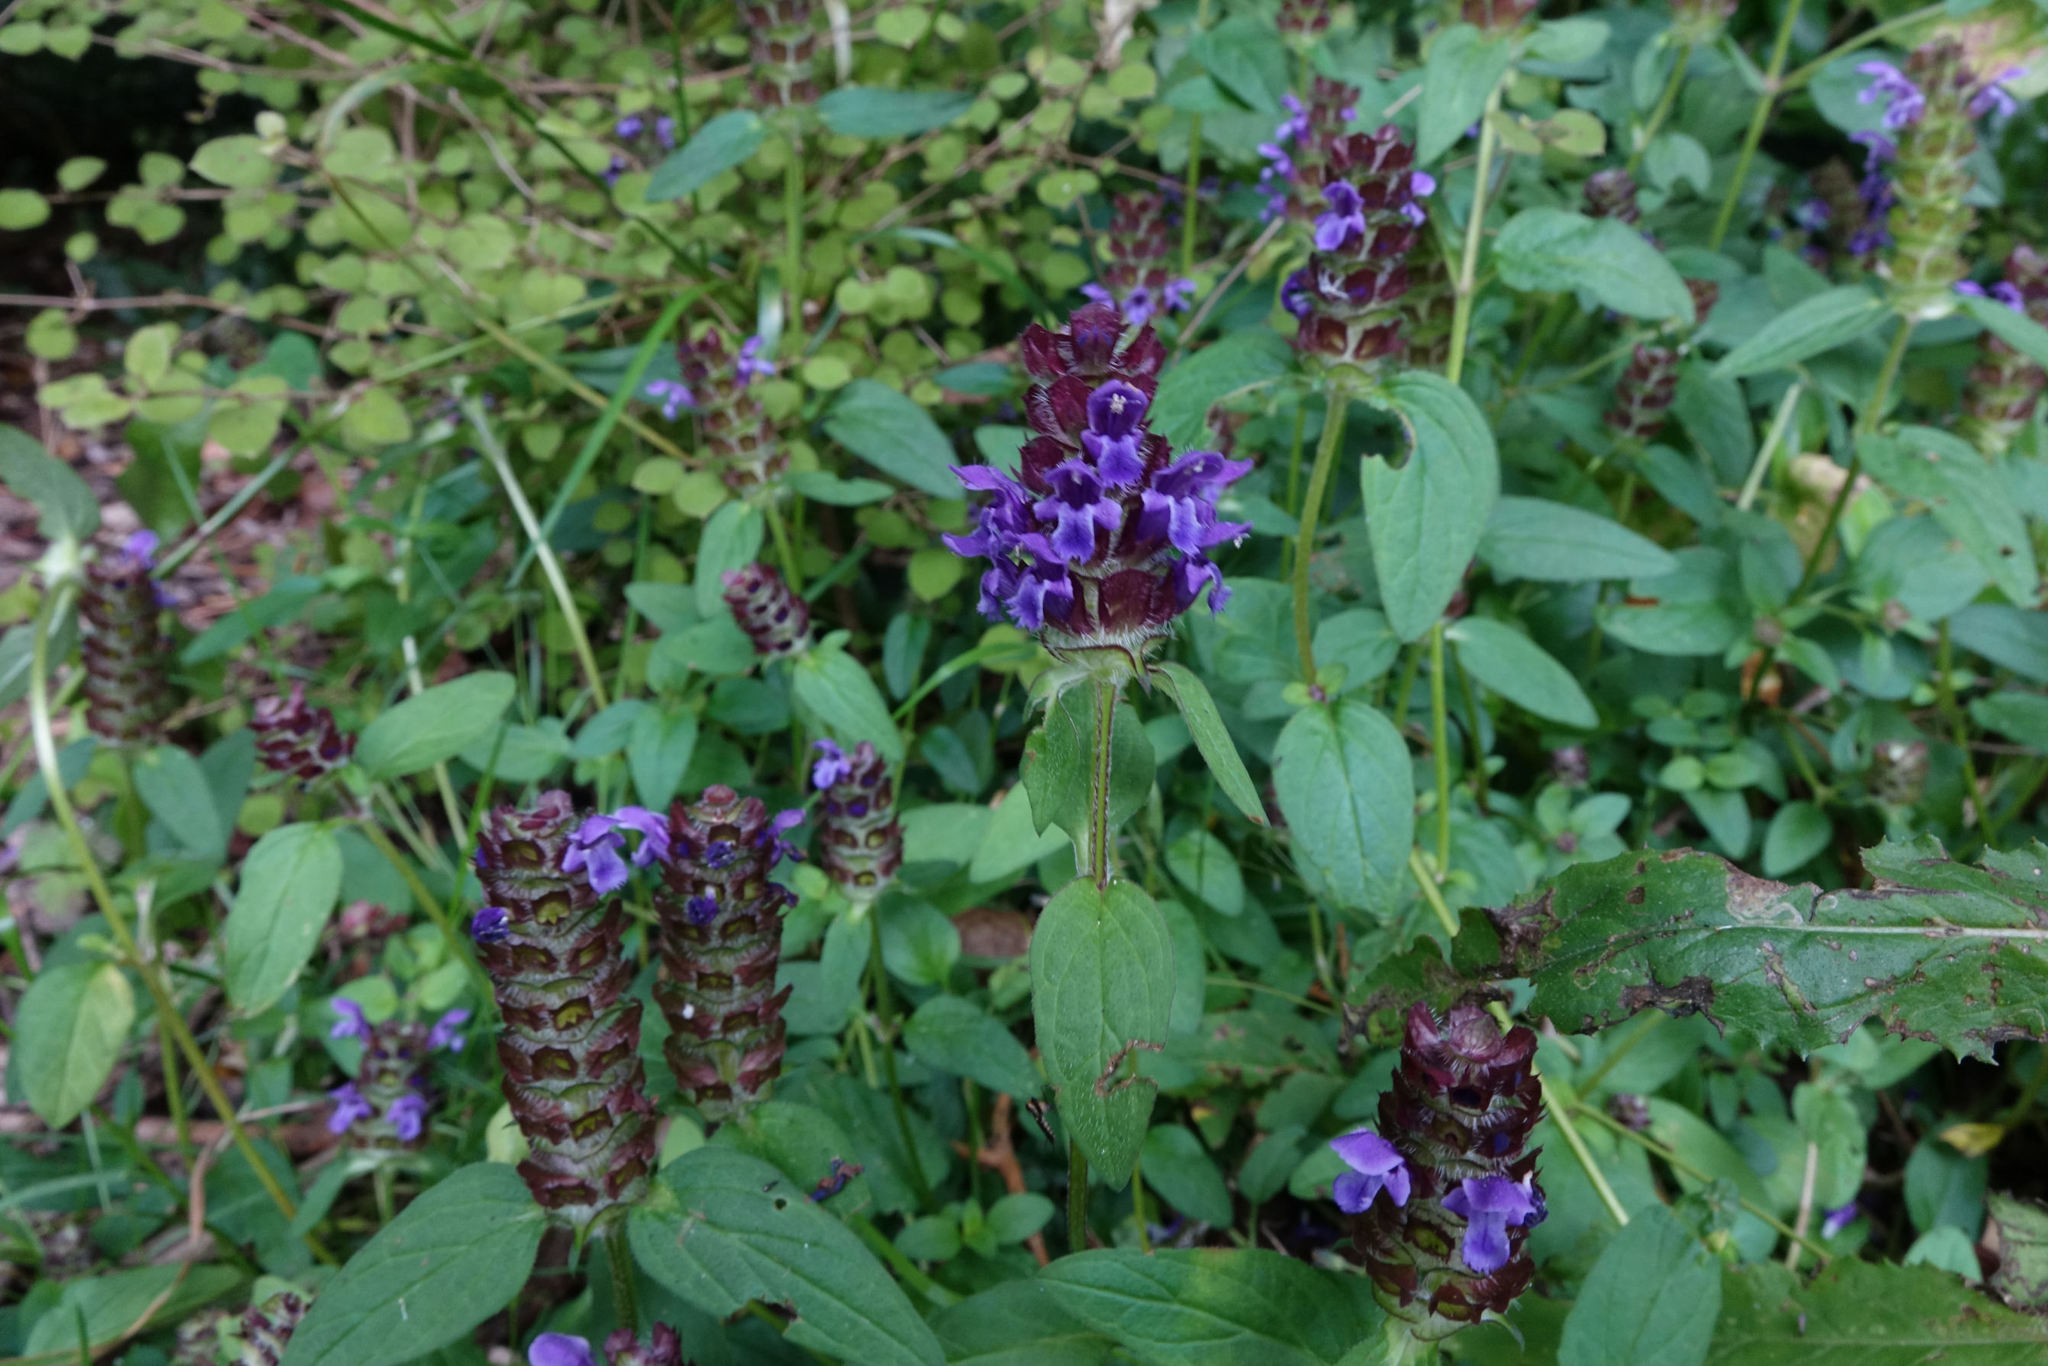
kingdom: Plantae
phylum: Tracheophyta
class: Magnoliopsida
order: Lamiales
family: Lamiaceae
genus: Prunella
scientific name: Prunella vulgaris
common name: Heal-all
